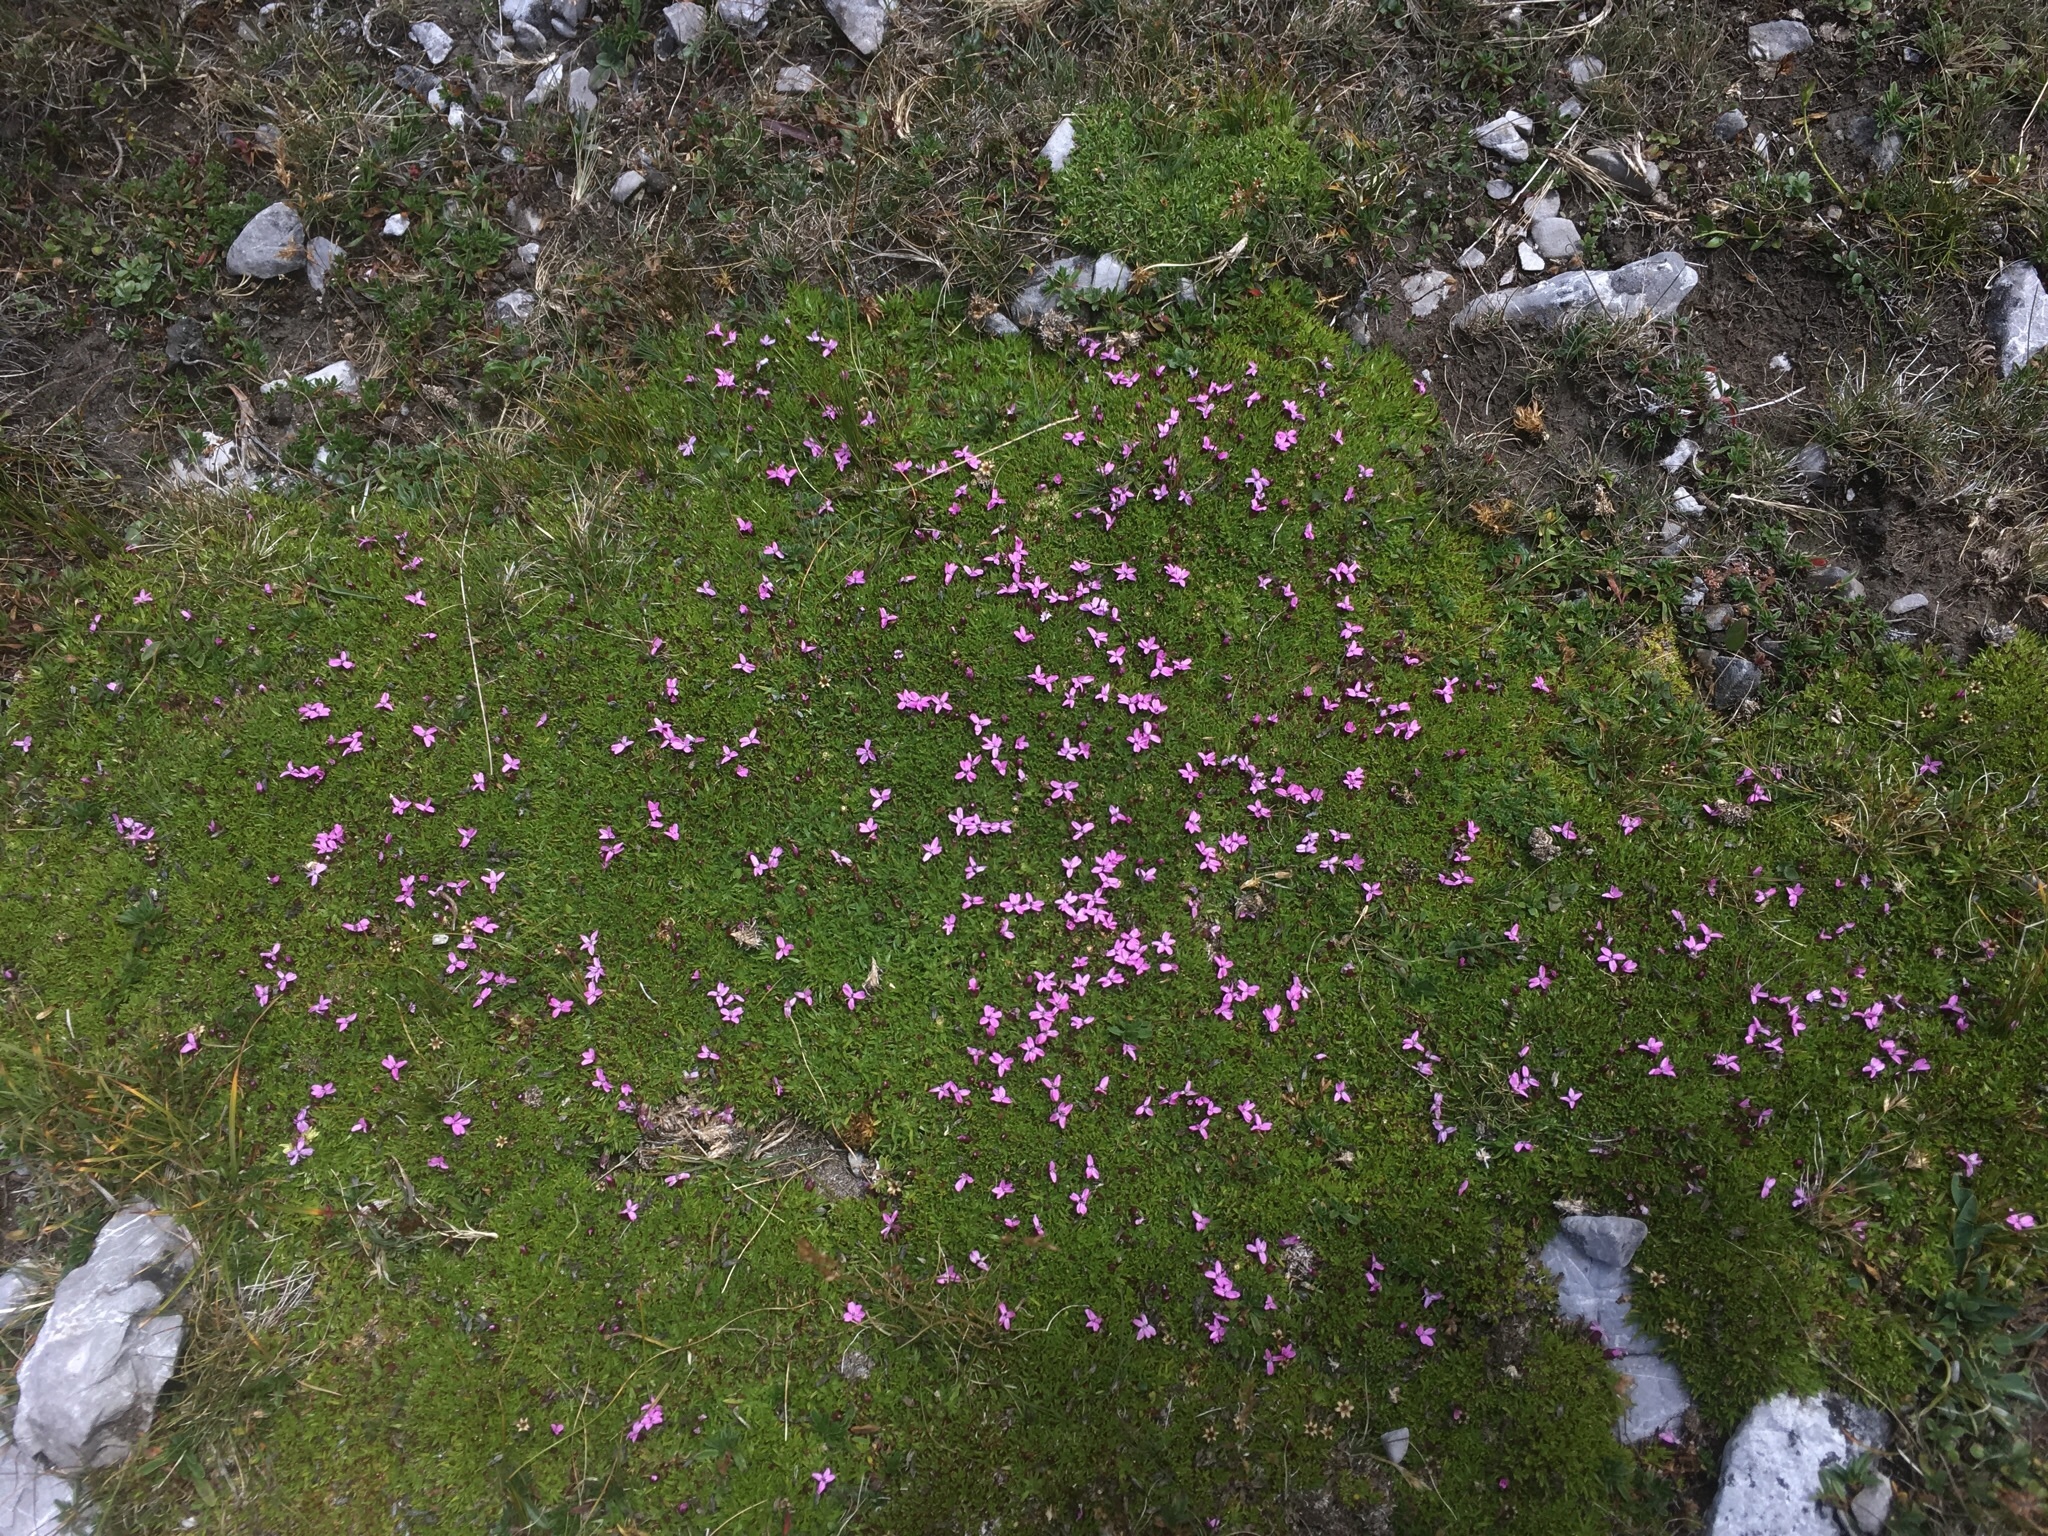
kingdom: Plantae
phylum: Tracheophyta
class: Magnoliopsida
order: Caryophyllales
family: Caryophyllaceae
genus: Silene
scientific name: Silene acaulis
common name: Moss campion
